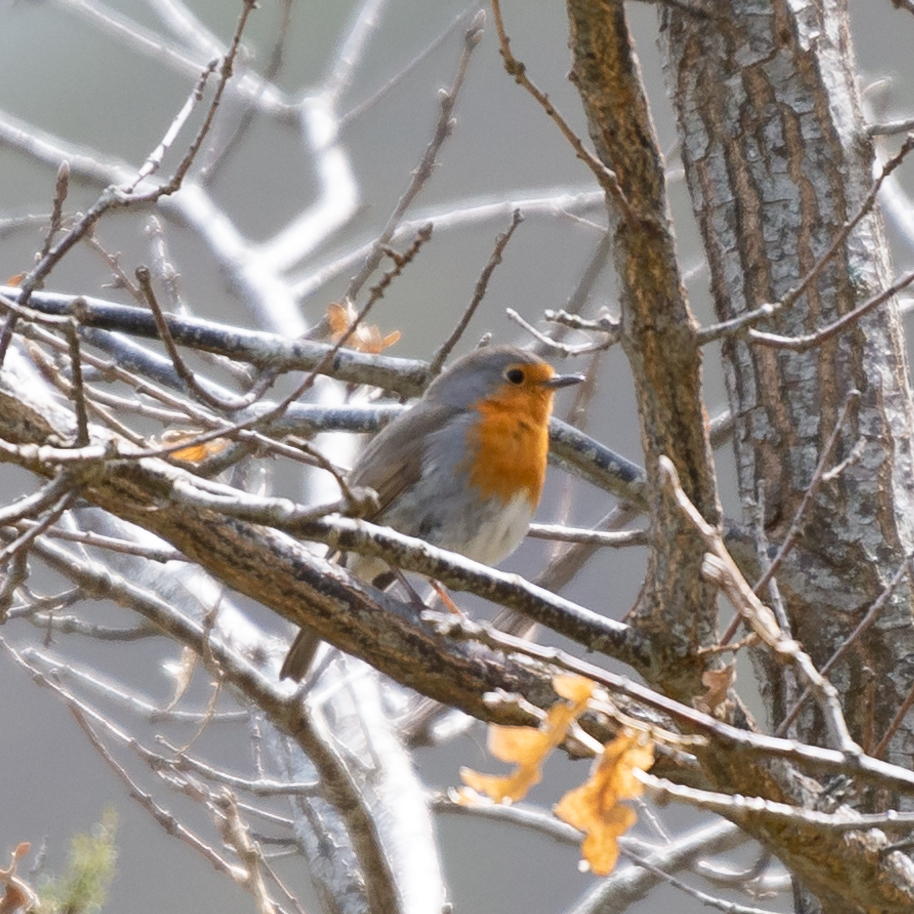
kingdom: Animalia
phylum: Chordata
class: Aves
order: Passeriformes
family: Muscicapidae
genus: Erithacus
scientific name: Erithacus rubecula
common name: European robin
